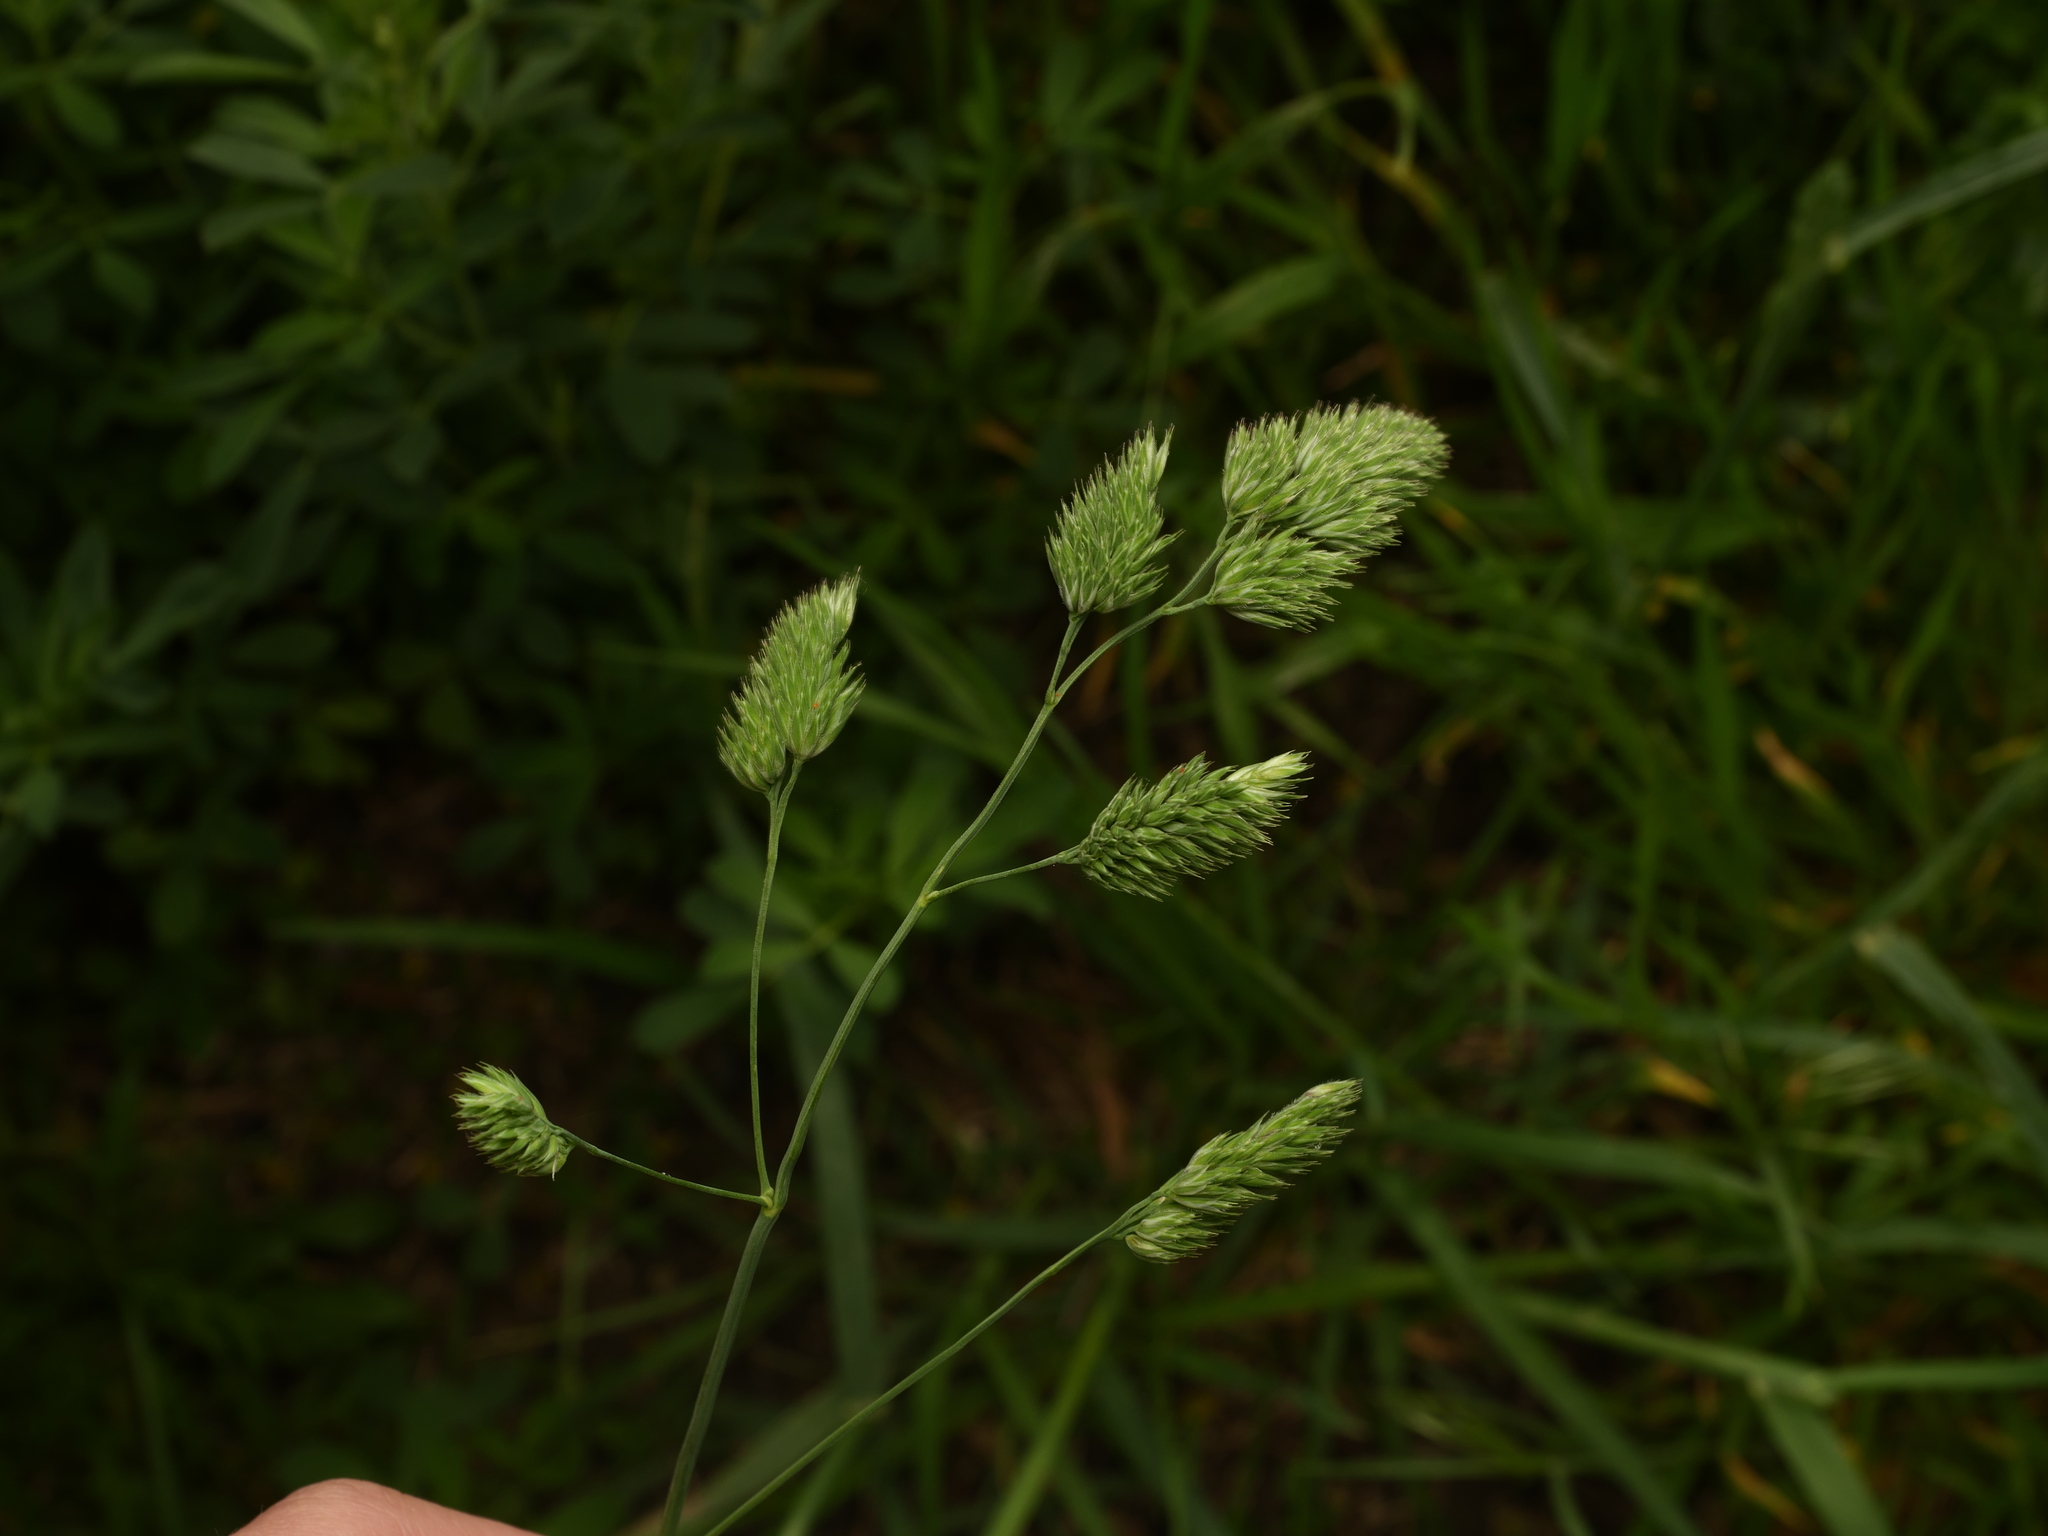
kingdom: Plantae
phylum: Tracheophyta
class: Liliopsida
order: Poales
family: Poaceae
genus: Dactylis
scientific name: Dactylis glomerata
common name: Orchardgrass
